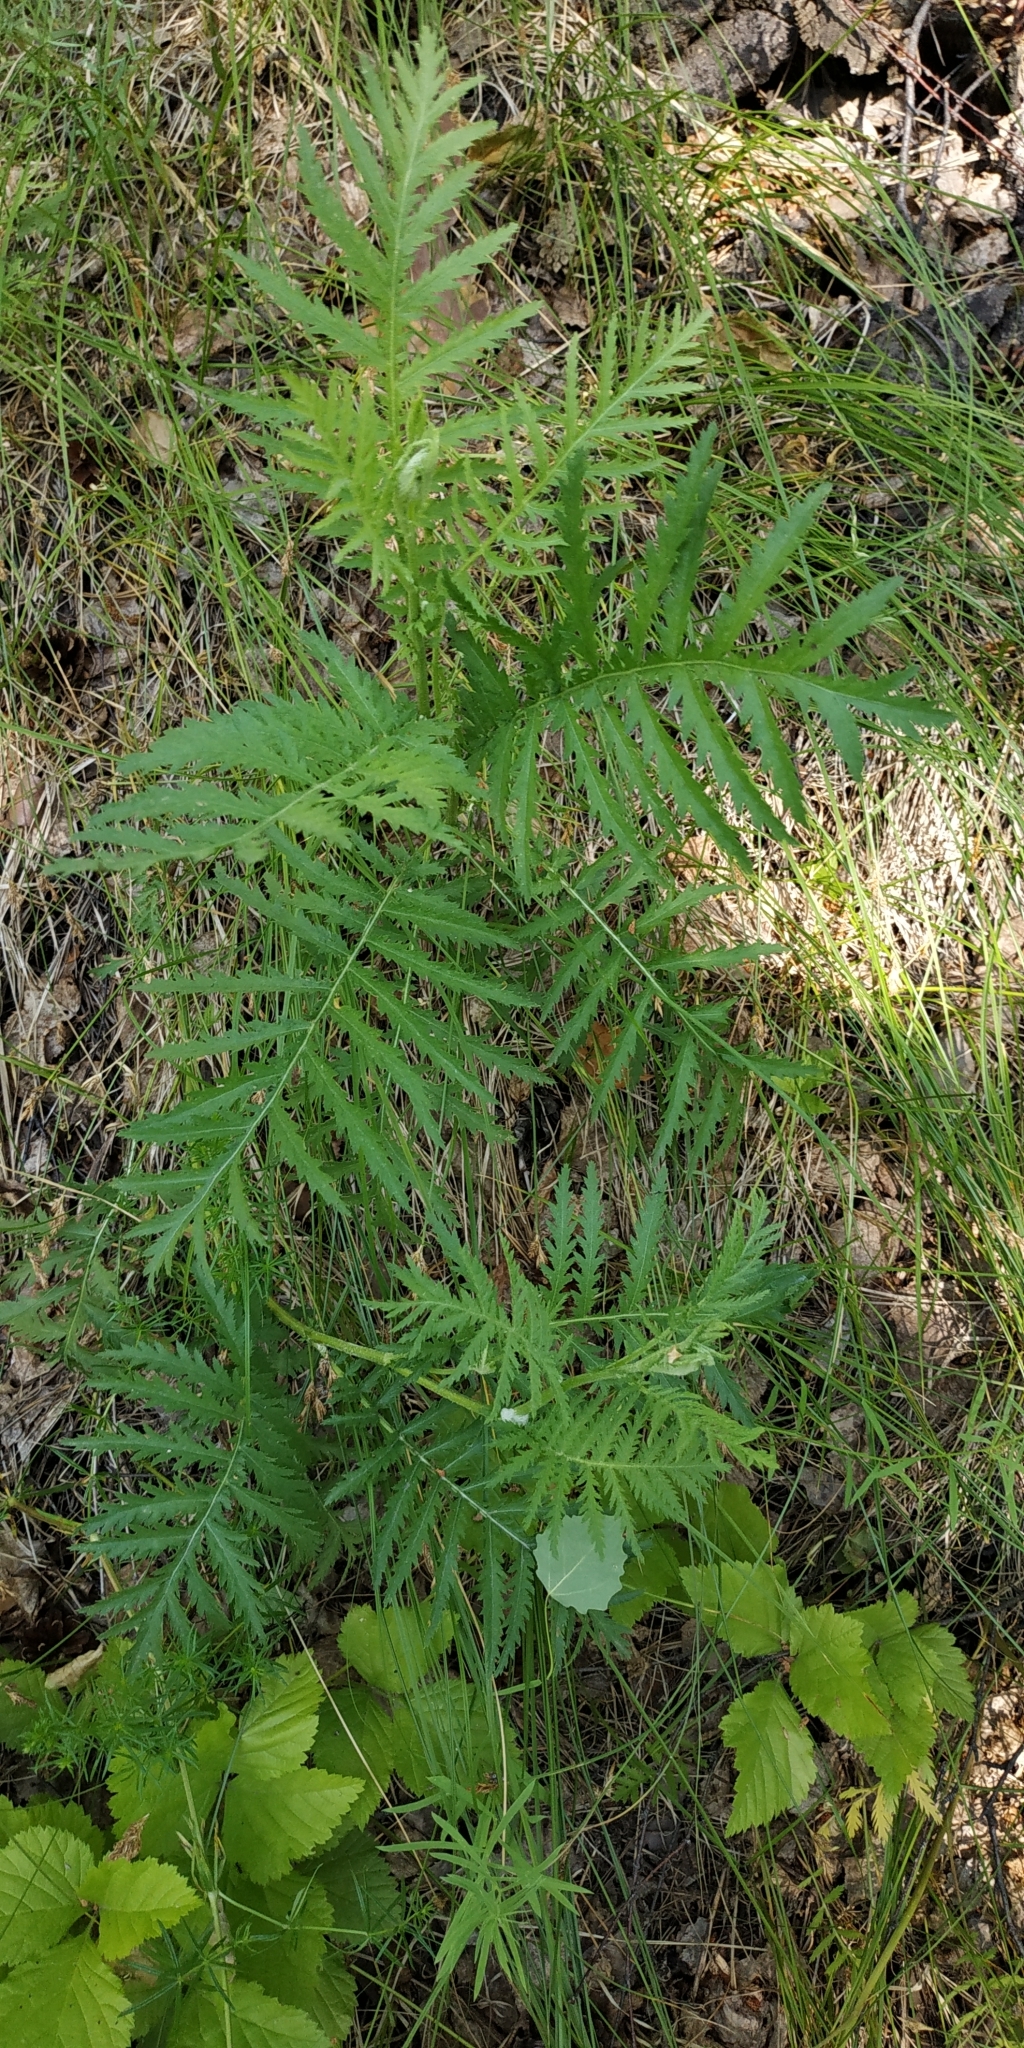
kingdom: Plantae
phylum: Tracheophyta
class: Magnoliopsida
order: Asterales
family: Asteraceae
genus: Tanacetum
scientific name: Tanacetum vulgare
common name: Common tansy
